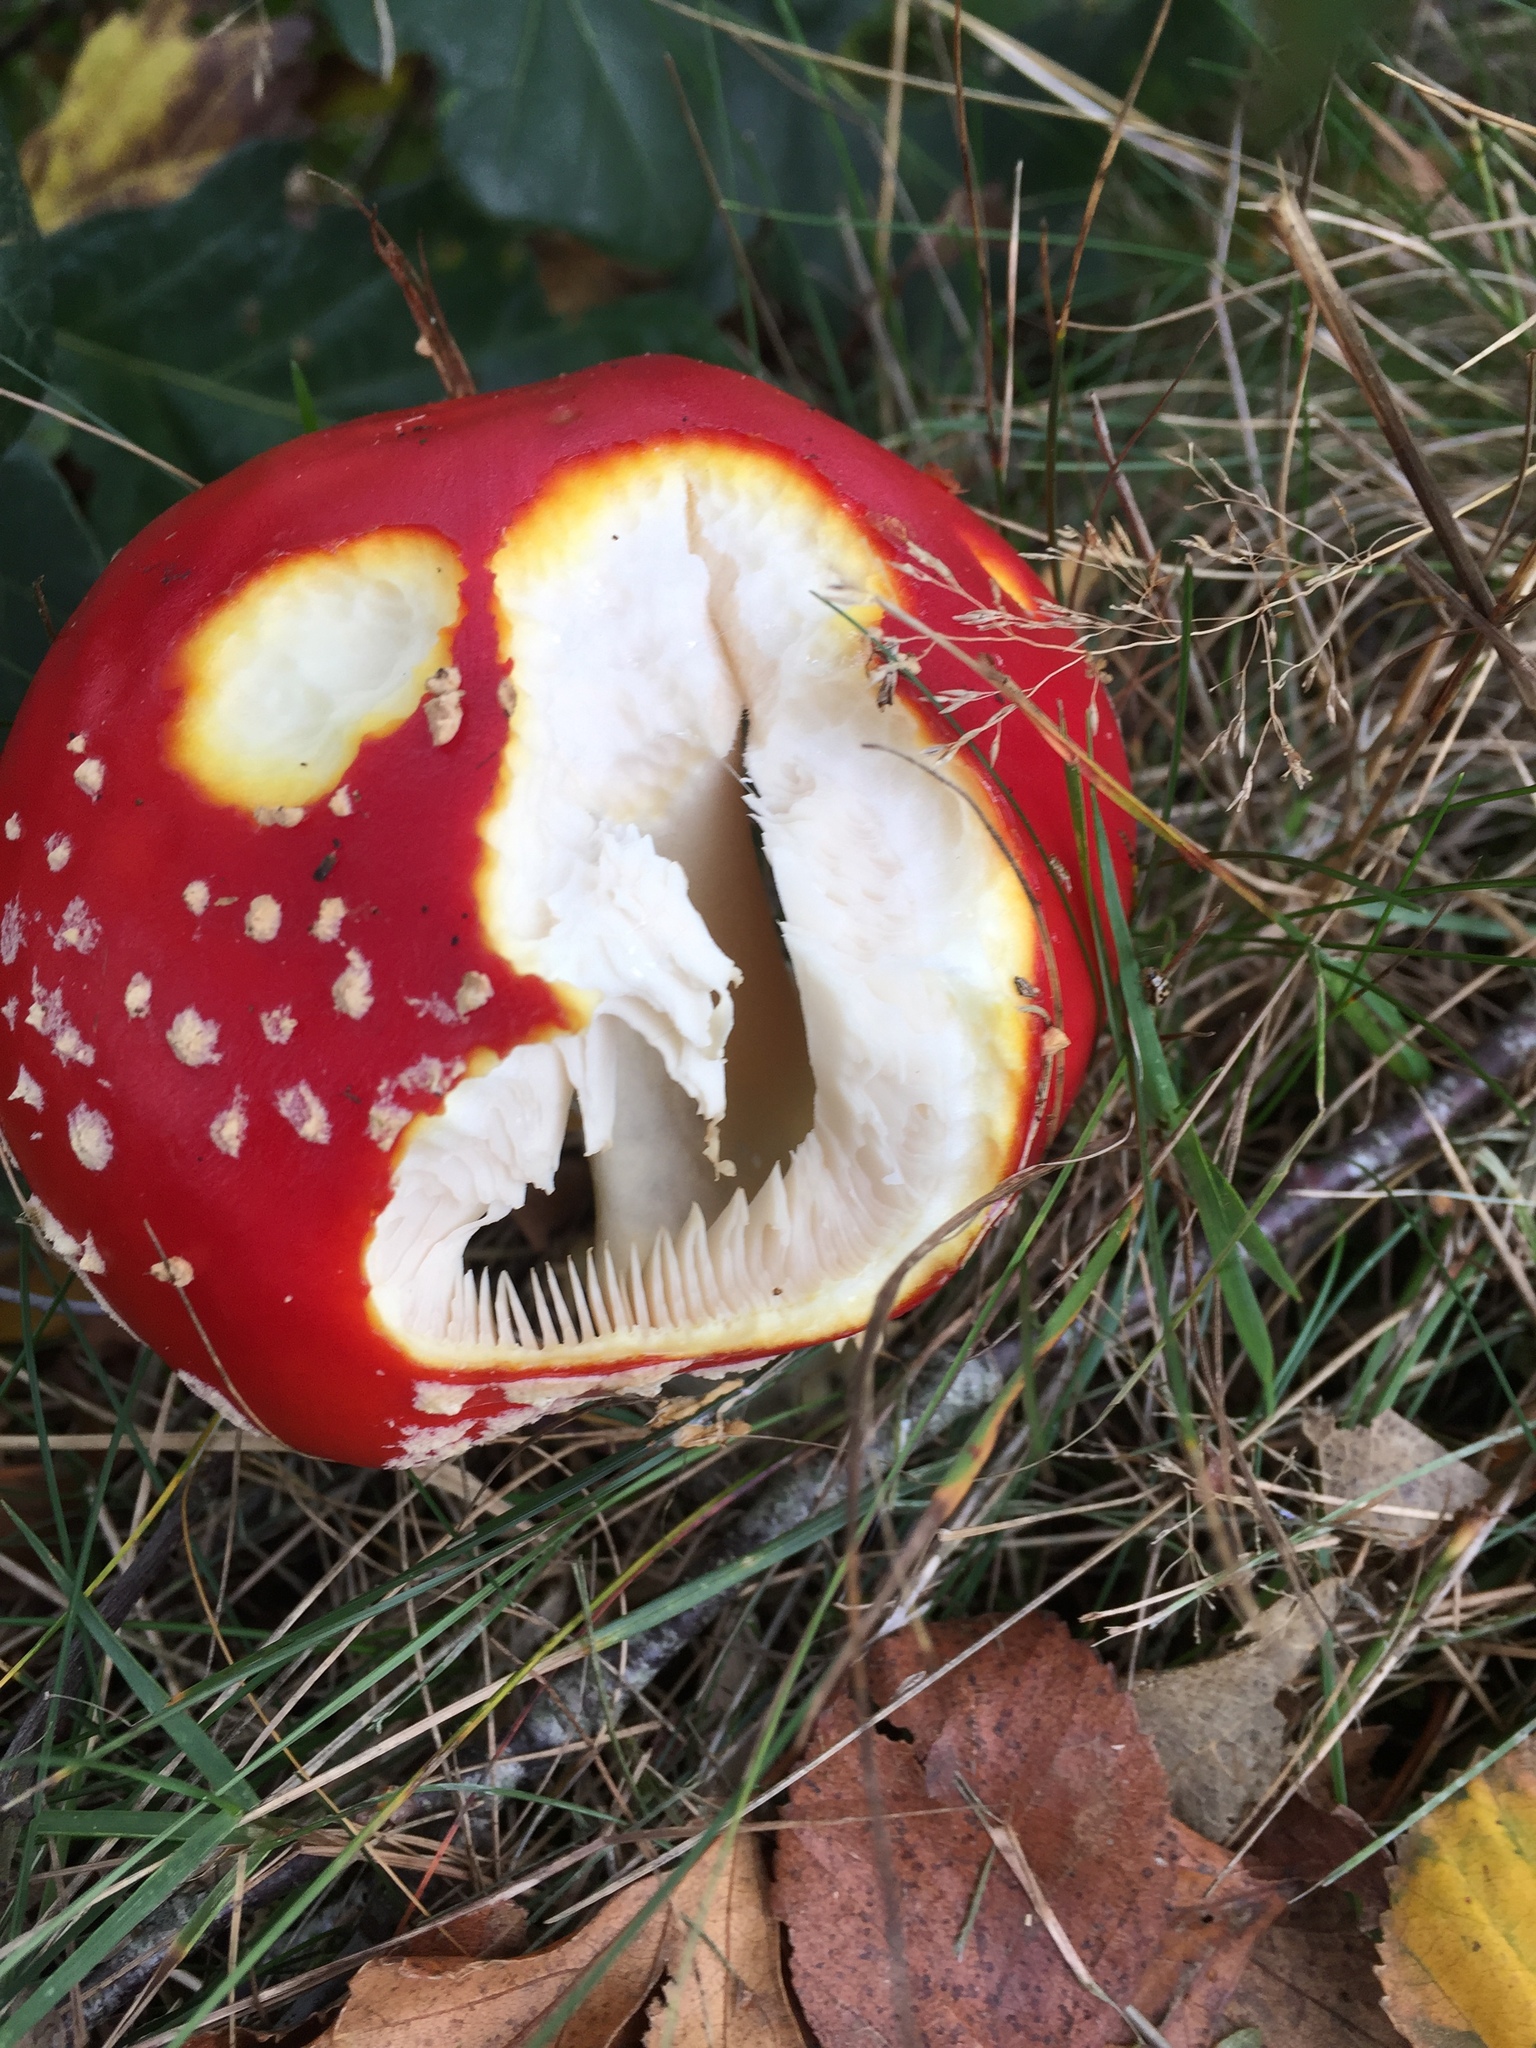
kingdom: Fungi
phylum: Basidiomycota
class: Agaricomycetes
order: Agaricales
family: Amanitaceae
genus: Amanita
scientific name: Amanita muscaria
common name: Fly agaric
